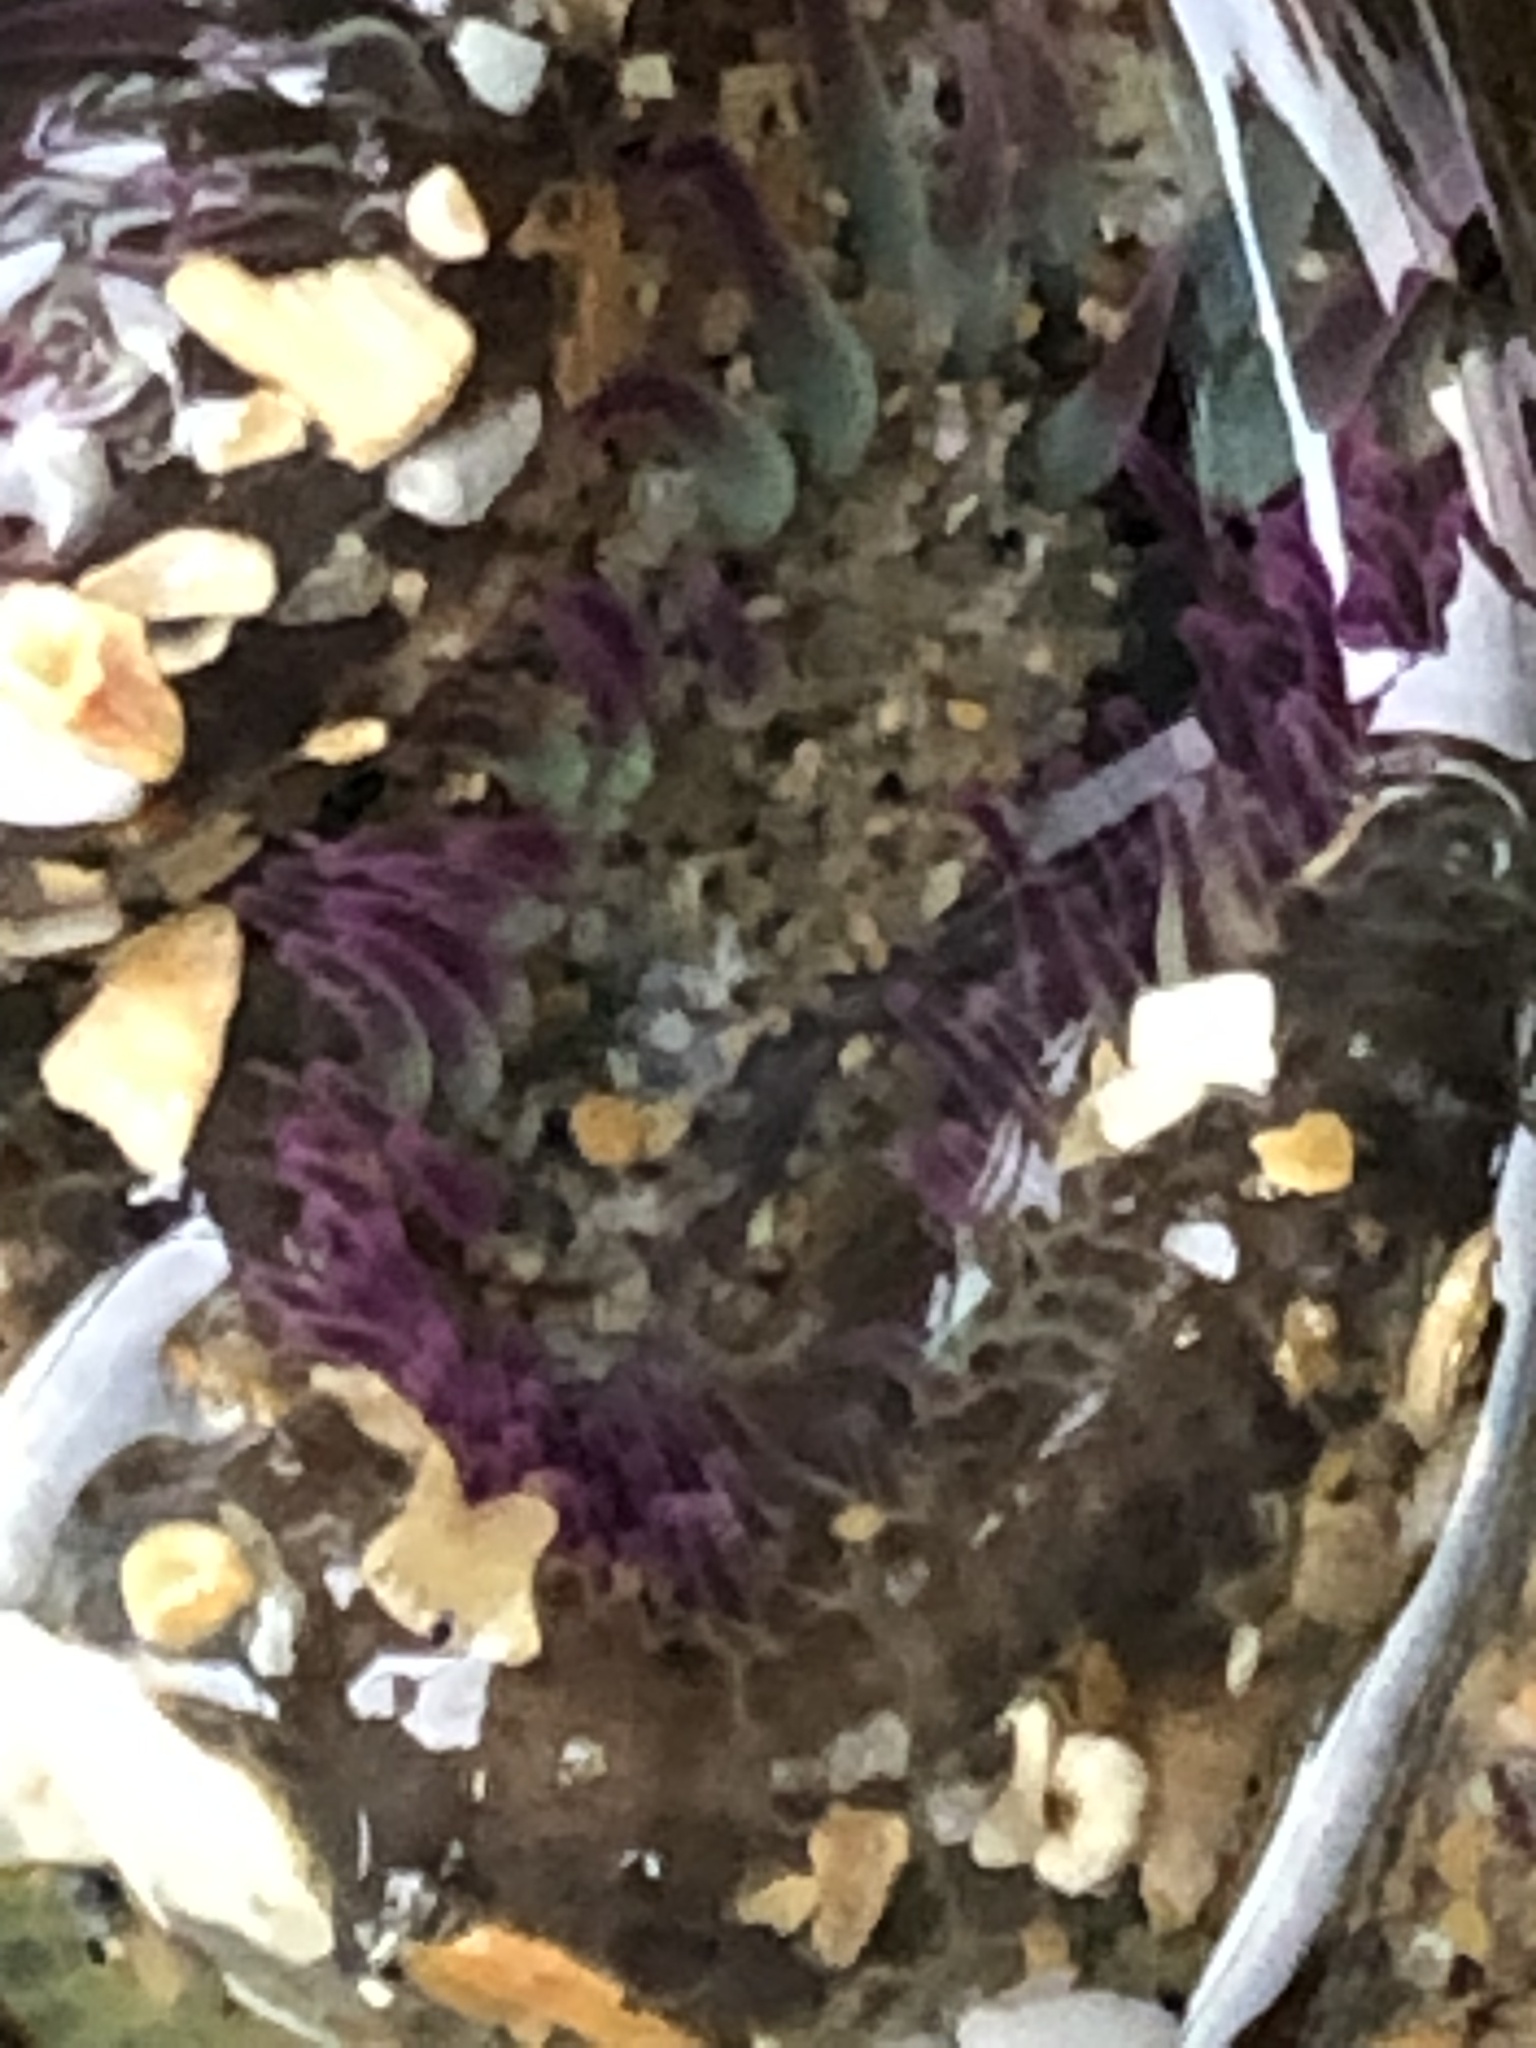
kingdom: Animalia
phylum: Cnidaria
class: Anthozoa
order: Actiniaria
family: Actiniidae
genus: Anthopleura
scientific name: Anthopleura elegantissima
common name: Clonal anemone
